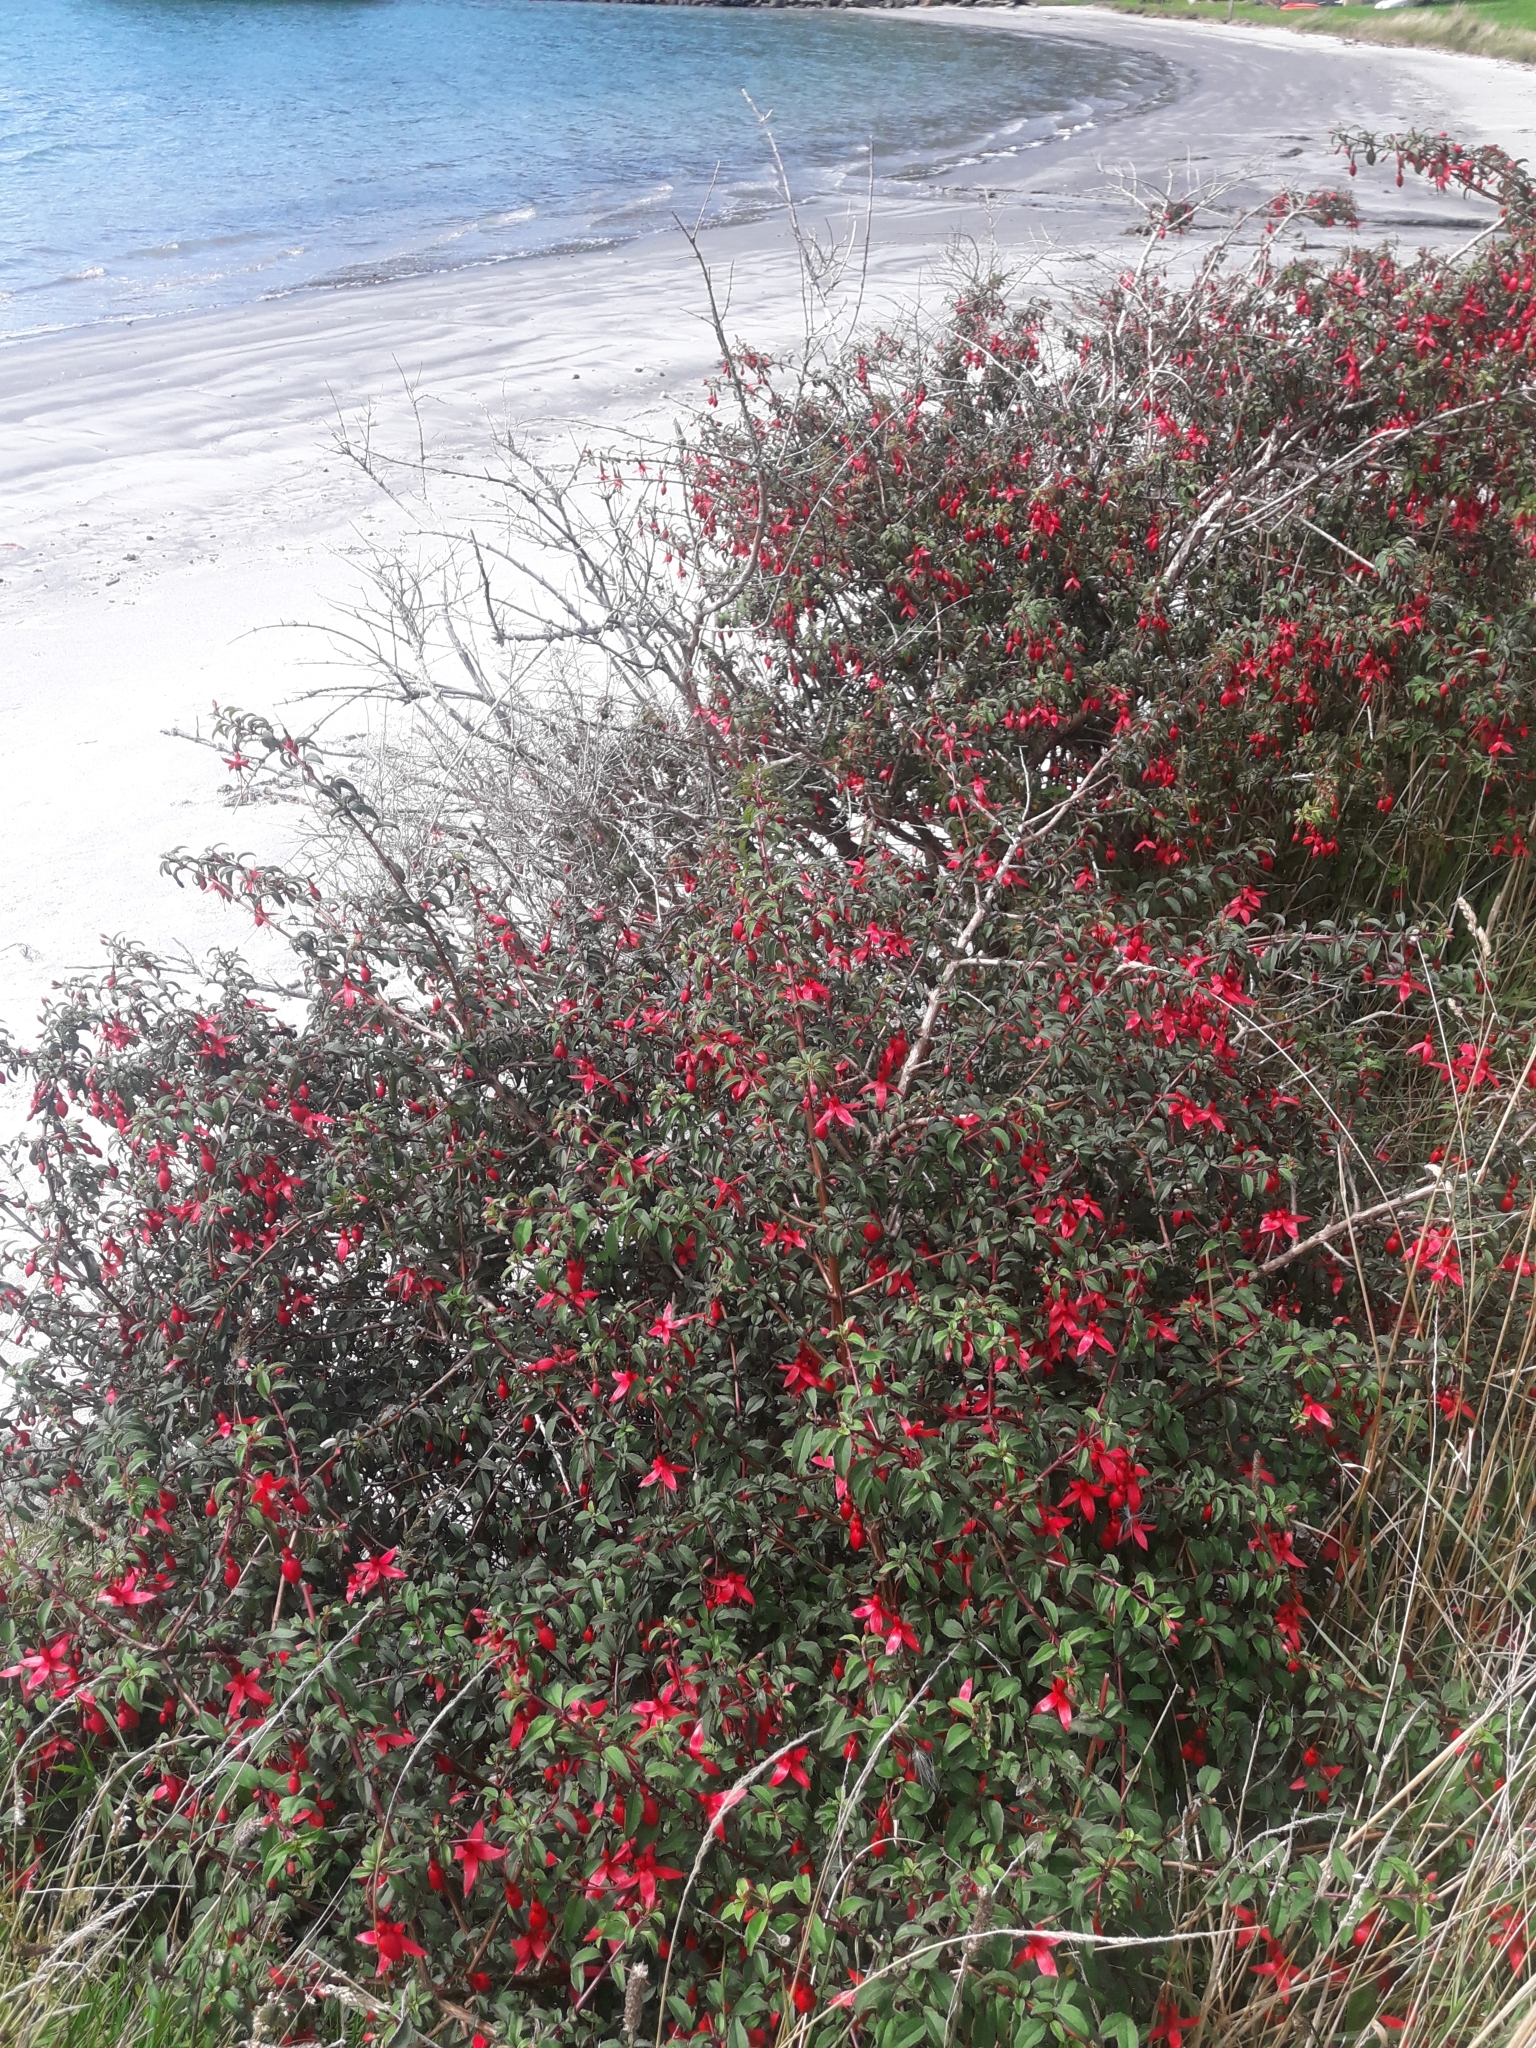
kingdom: Plantae
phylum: Tracheophyta
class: Magnoliopsida
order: Myrtales
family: Onagraceae
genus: Fuchsia
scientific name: Fuchsia magellanica
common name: Hardy fuchsia
